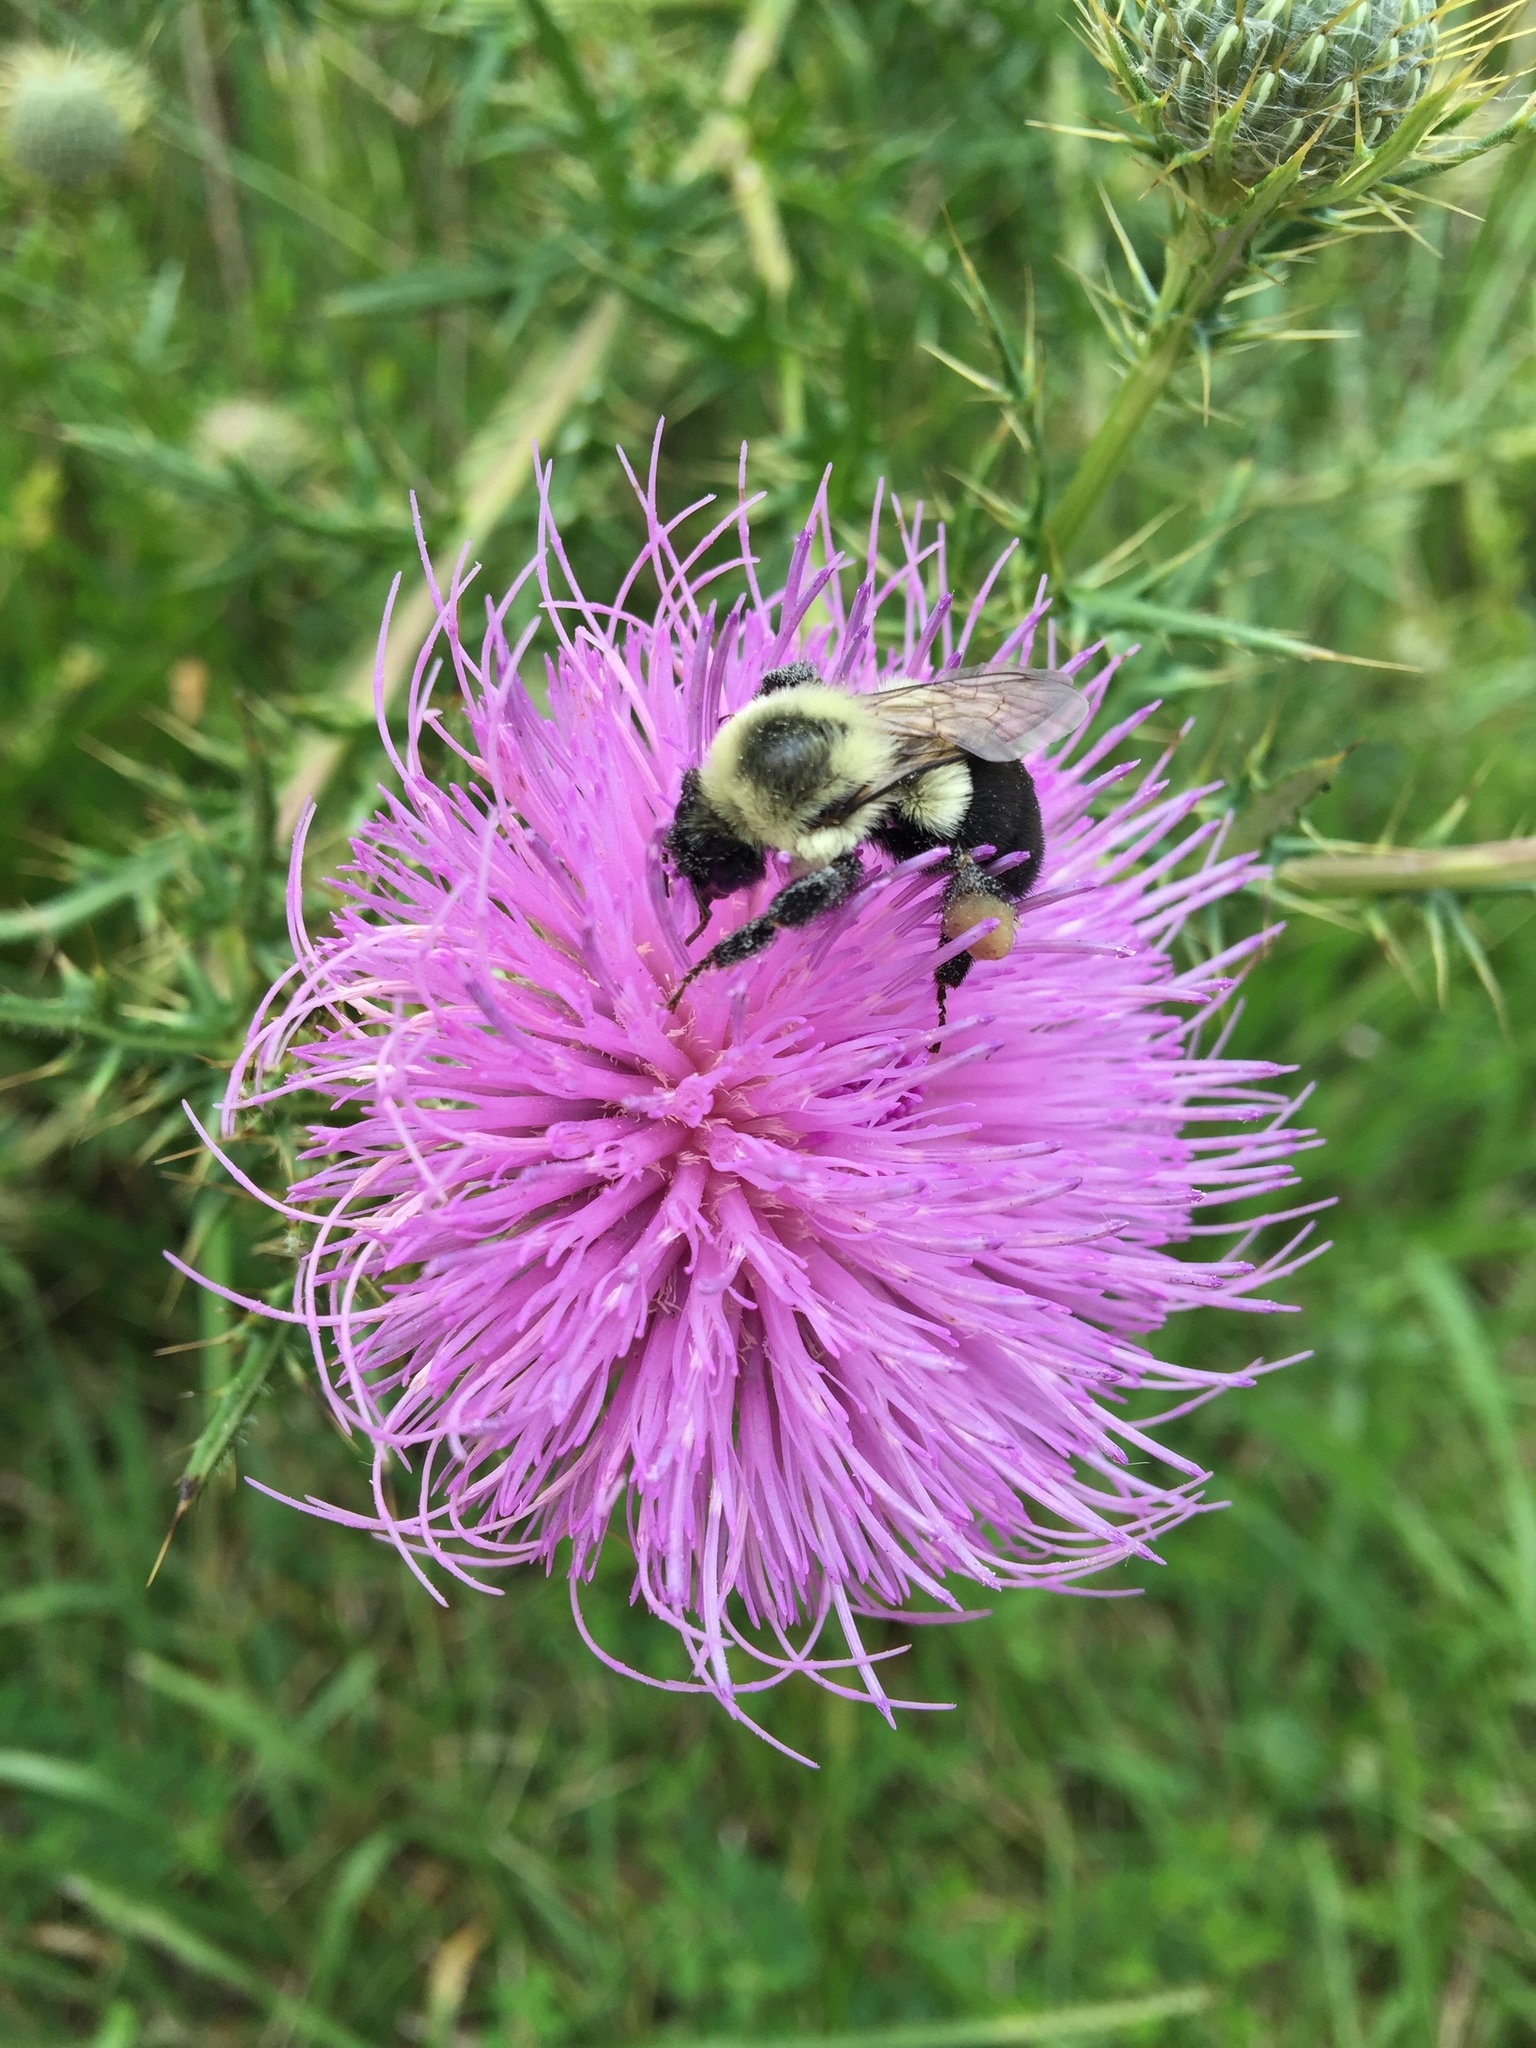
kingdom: Animalia
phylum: Arthropoda
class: Insecta
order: Hymenoptera
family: Apidae
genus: Bombus
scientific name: Bombus impatiens
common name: Common eastern bumble bee
